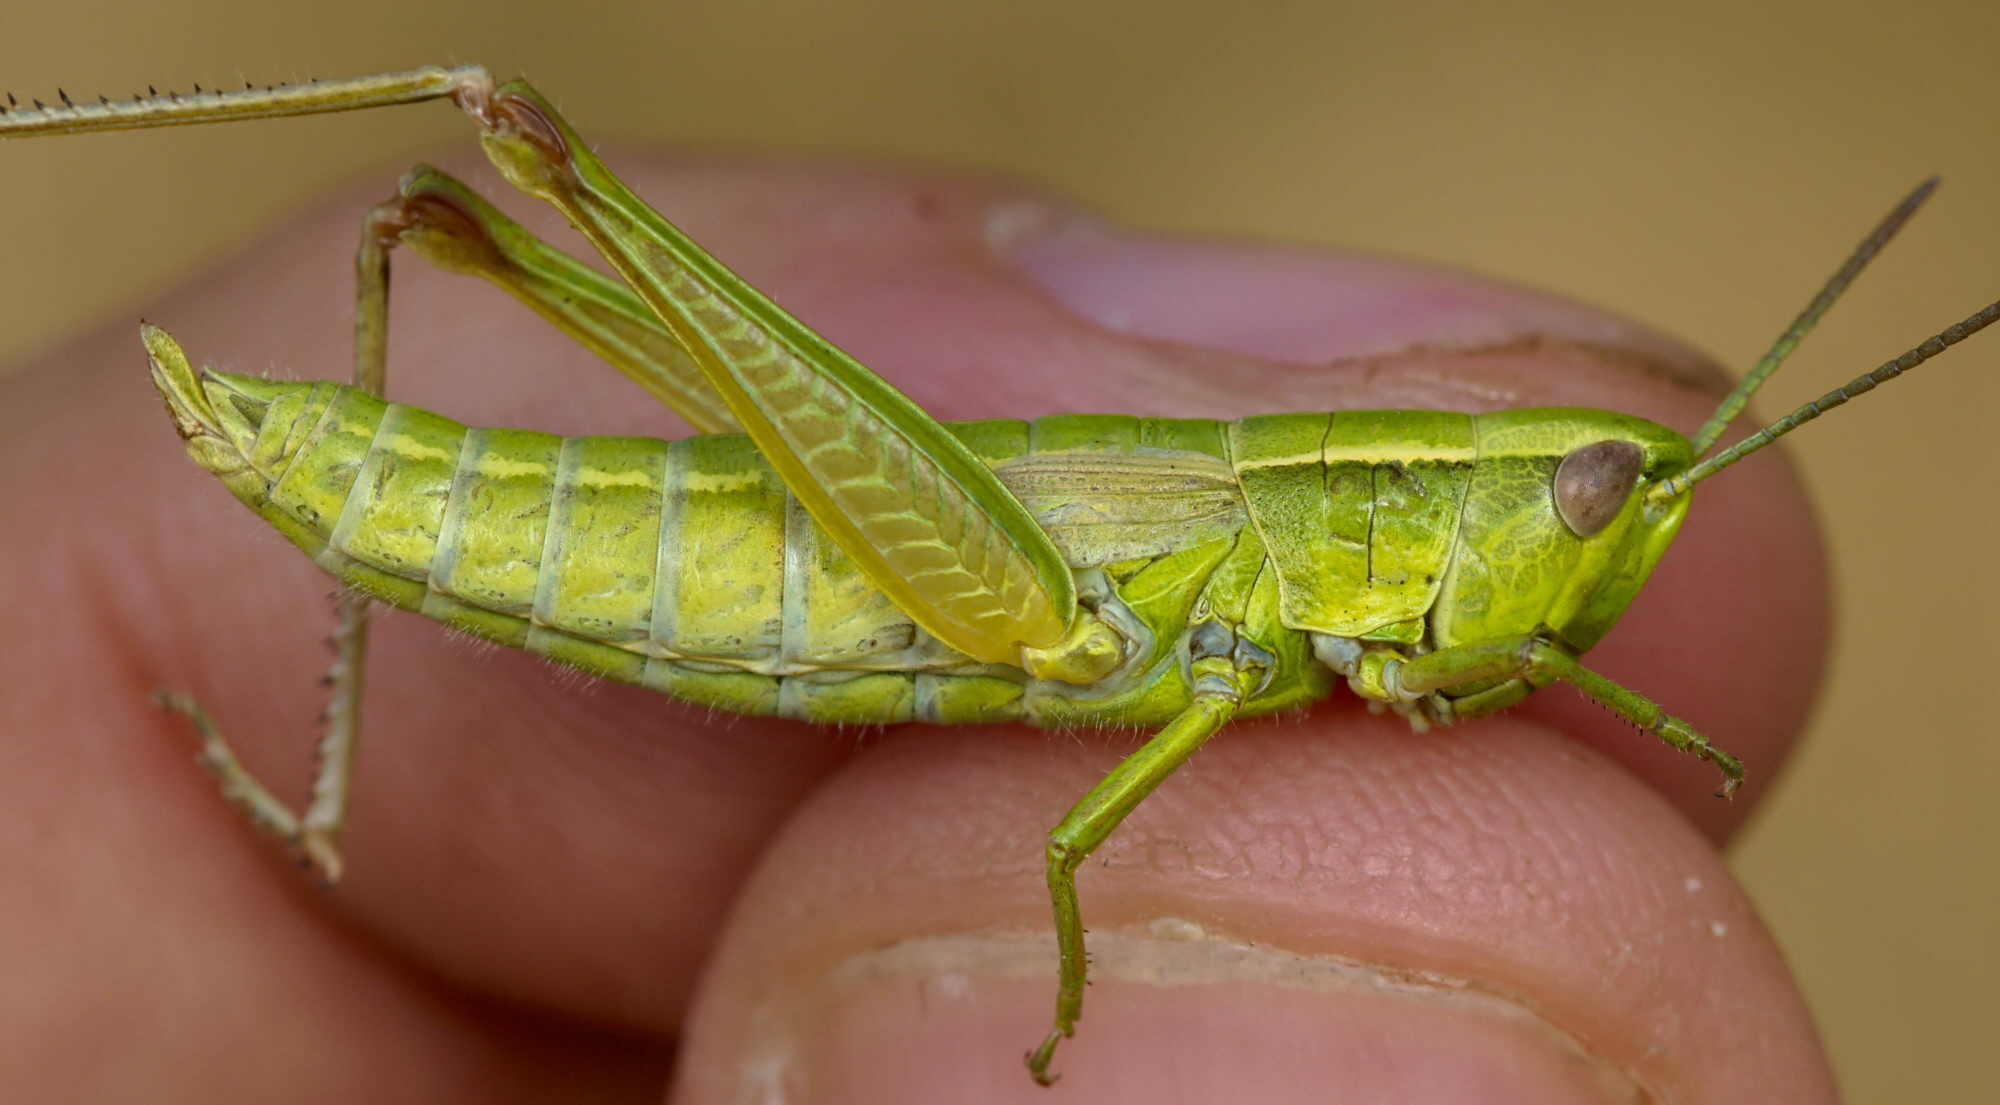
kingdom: Animalia
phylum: Arthropoda
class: Insecta
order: Orthoptera
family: Acrididae
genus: Euthystira
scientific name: Euthystira brachyptera
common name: Small gold grasshopper
